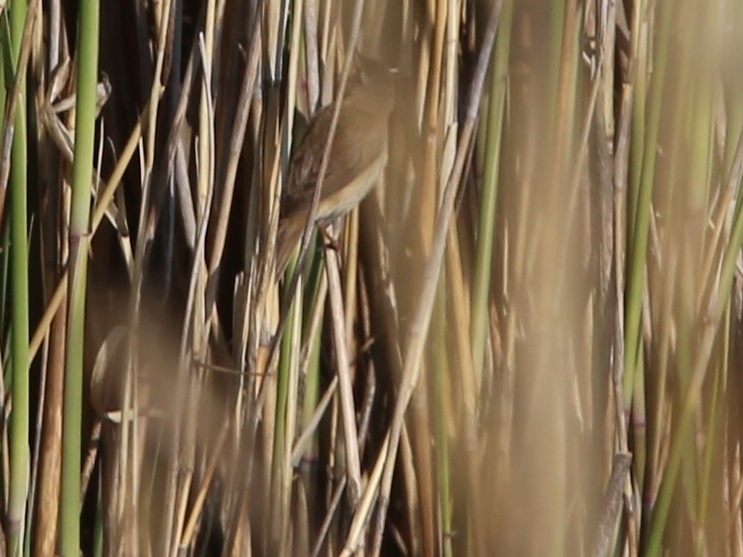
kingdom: Animalia
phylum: Chordata
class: Aves
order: Passeriformes
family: Acrocephalidae
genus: Acrocephalus
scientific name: Acrocephalus agricola
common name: Paddyfield warbler
